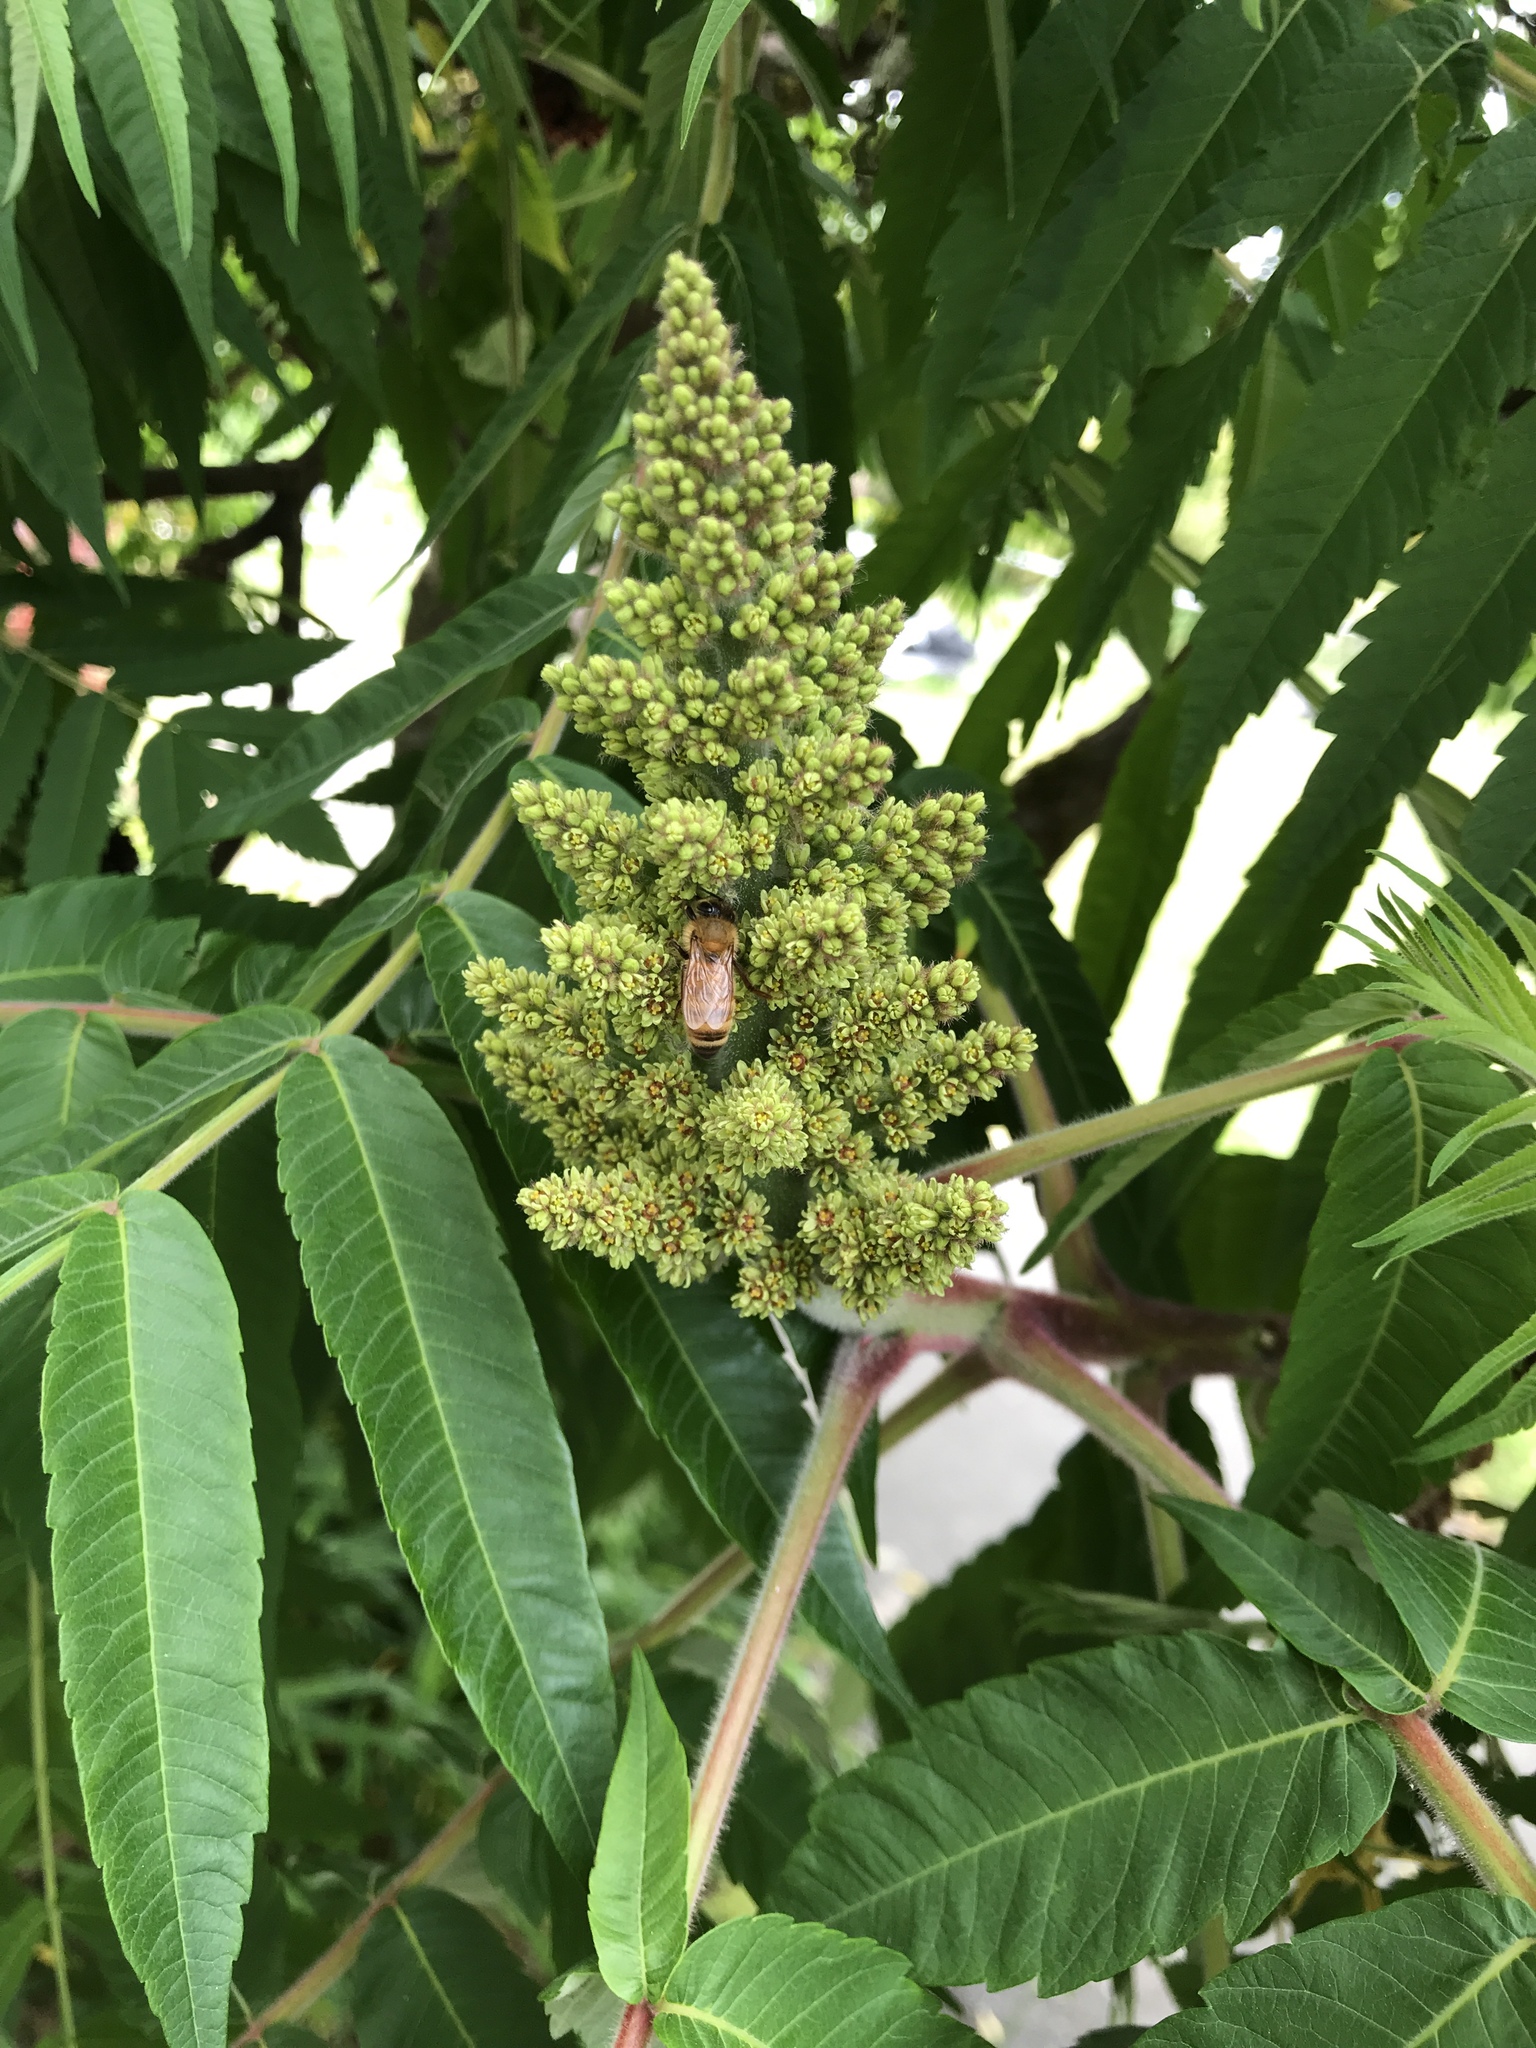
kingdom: Plantae
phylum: Tracheophyta
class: Magnoliopsida
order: Sapindales
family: Anacardiaceae
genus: Rhus
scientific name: Rhus typhina
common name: Staghorn sumac
